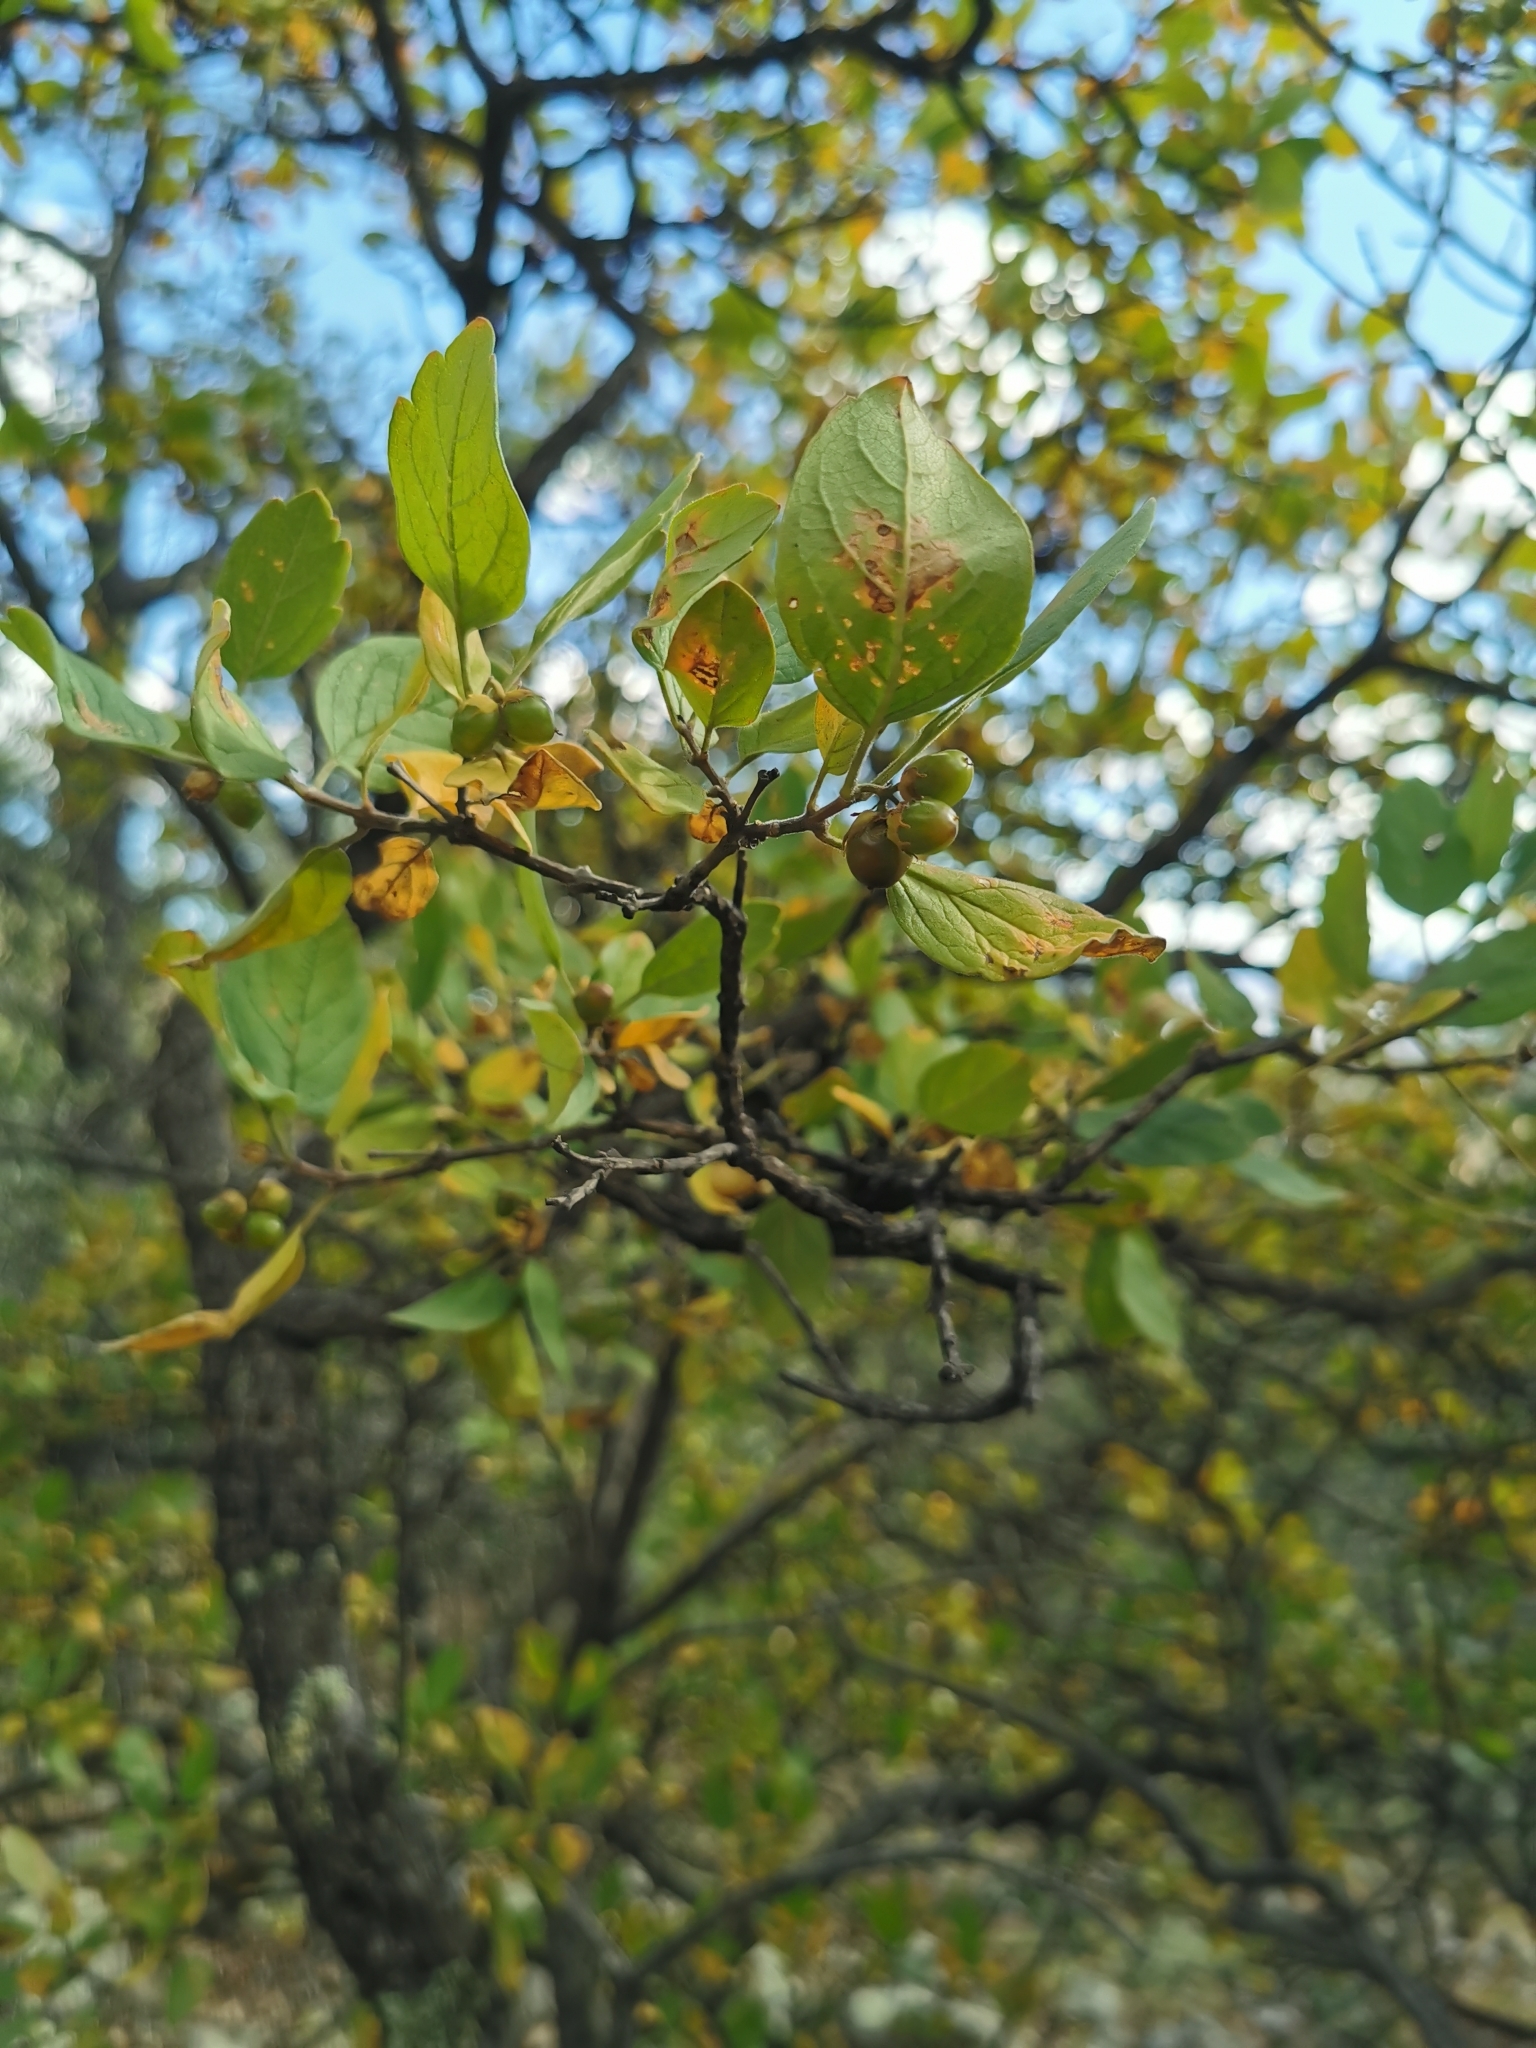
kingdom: Plantae
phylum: Tracheophyta
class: Magnoliopsida
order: Lamiales
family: Verbenaceae
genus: Citharexylum
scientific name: Citharexylum altamiranum
